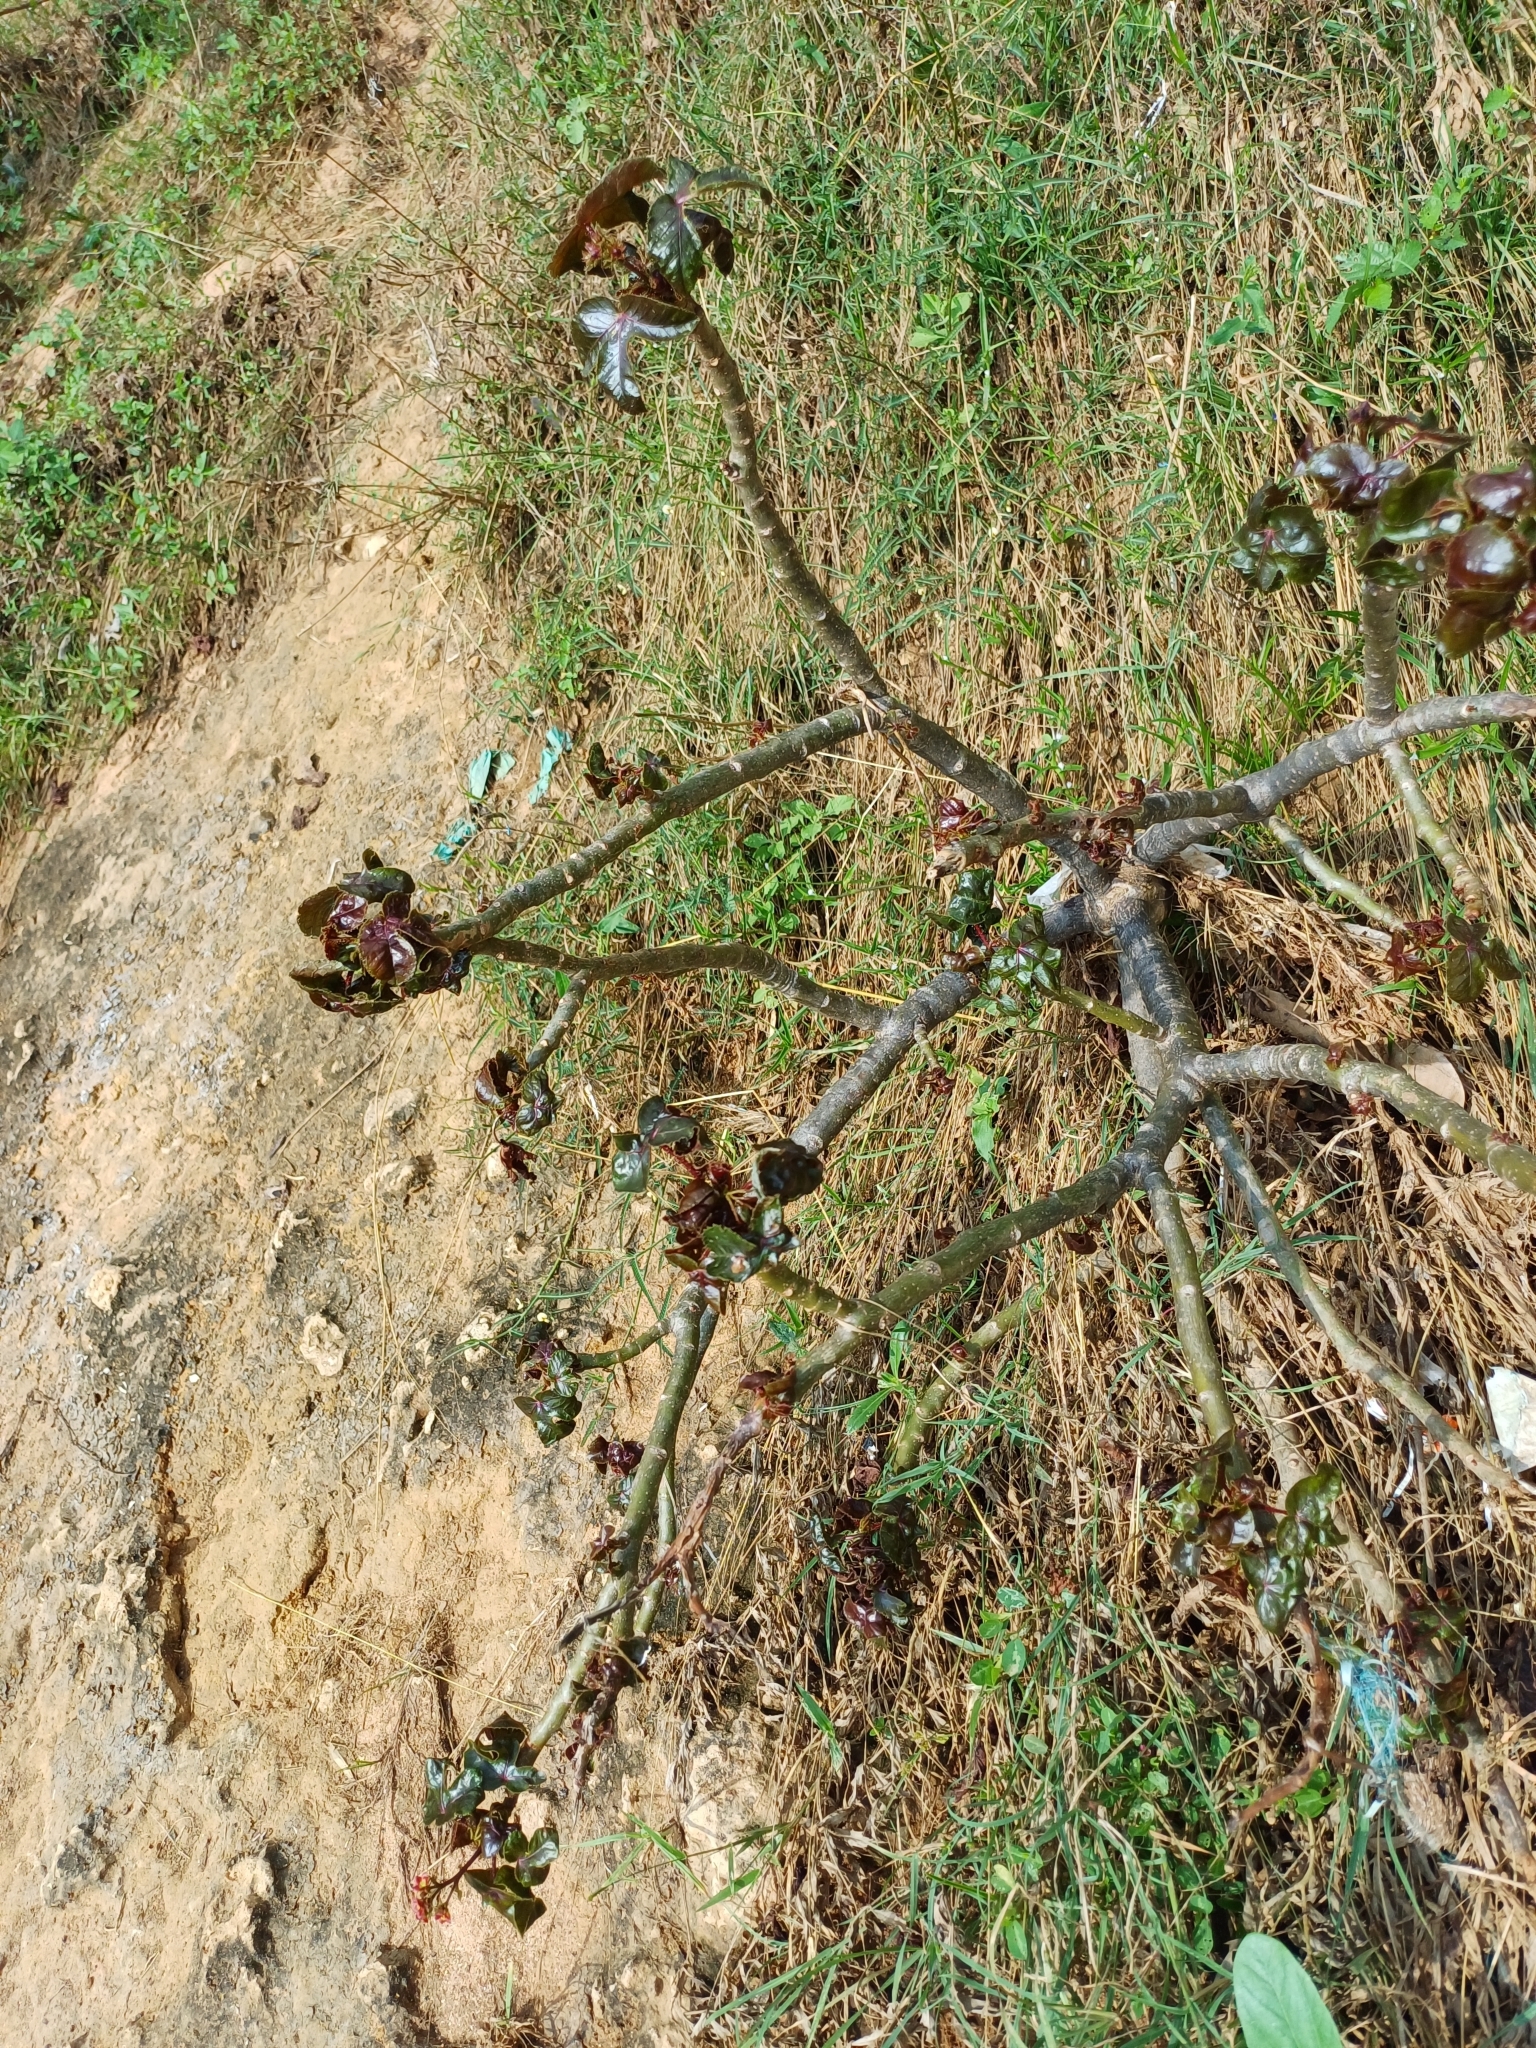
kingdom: Plantae
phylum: Tracheophyta
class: Magnoliopsida
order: Malpighiales
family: Euphorbiaceae
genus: Jatropha
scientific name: Jatropha gossypiifolia
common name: Bellyache bush
